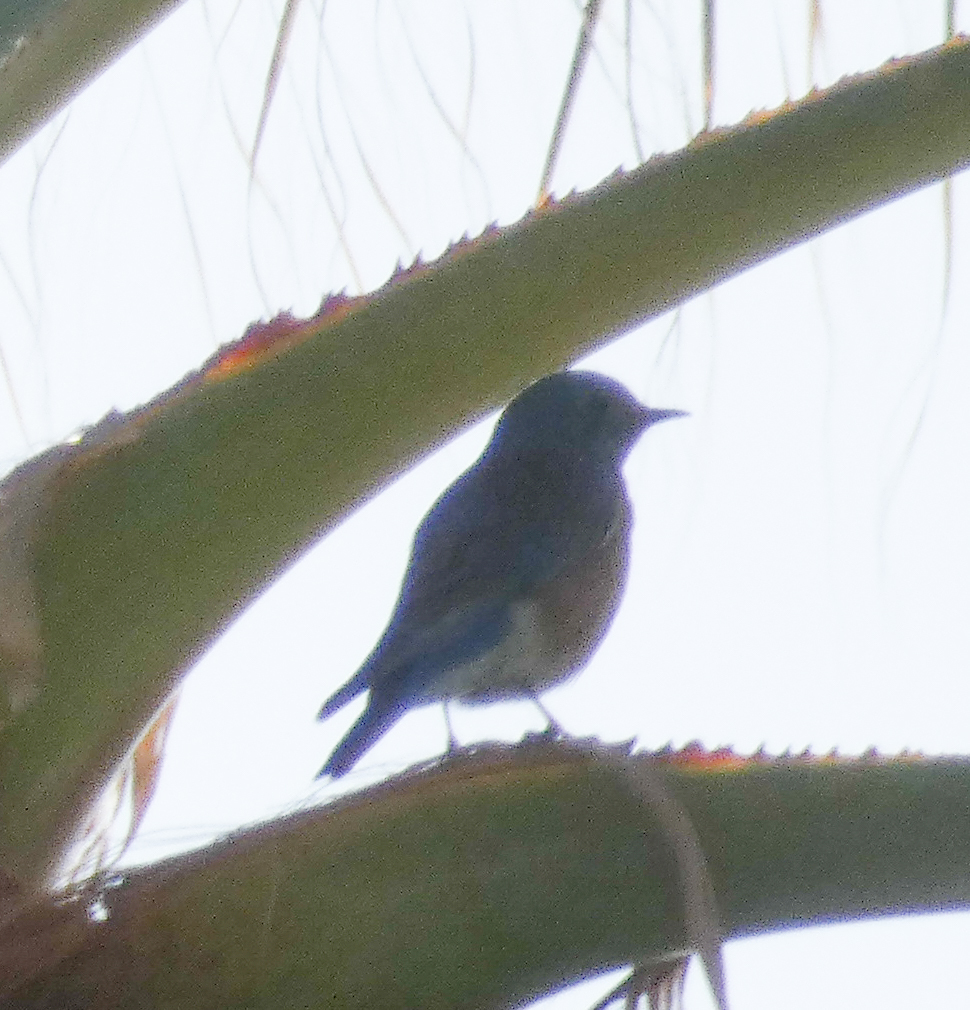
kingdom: Animalia
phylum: Chordata
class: Aves
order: Passeriformes
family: Turdidae
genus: Sialia
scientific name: Sialia mexicana
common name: Western bluebird
